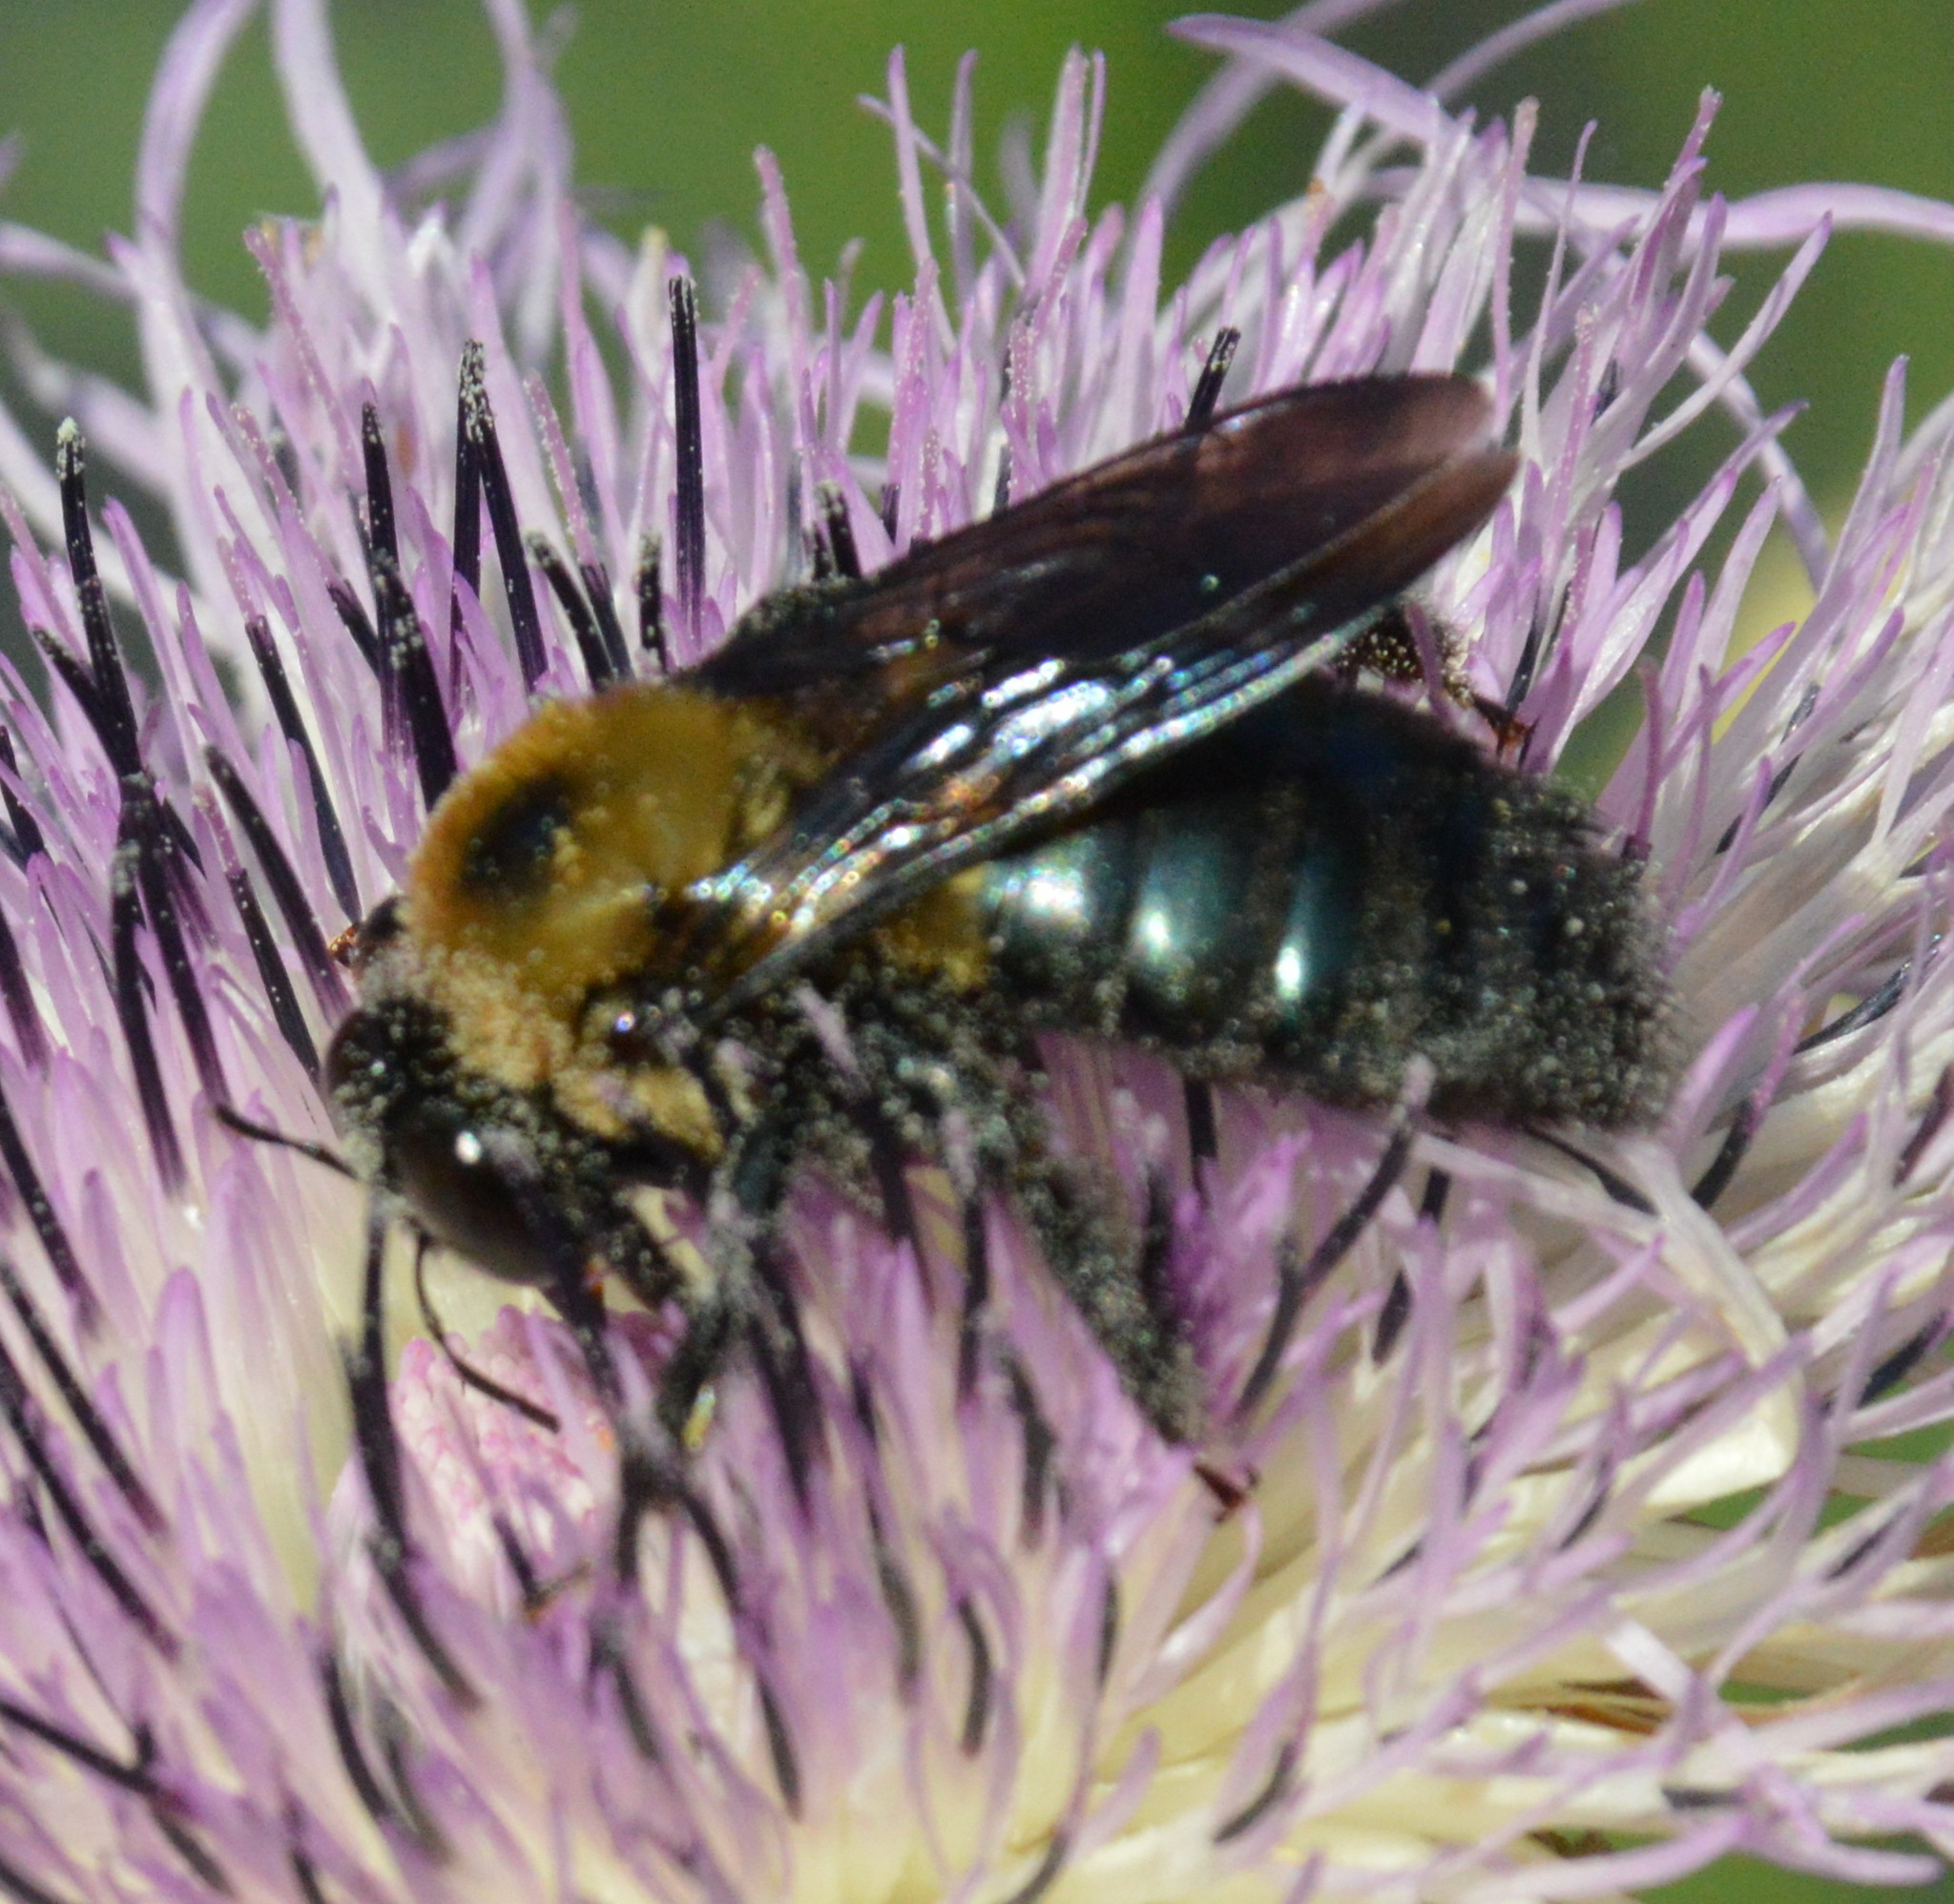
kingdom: Animalia
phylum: Arthropoda
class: Insecta
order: Hymenoptera
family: Apidae
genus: Xylocopa
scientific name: Xylocopa virginica
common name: Carpenter bee
